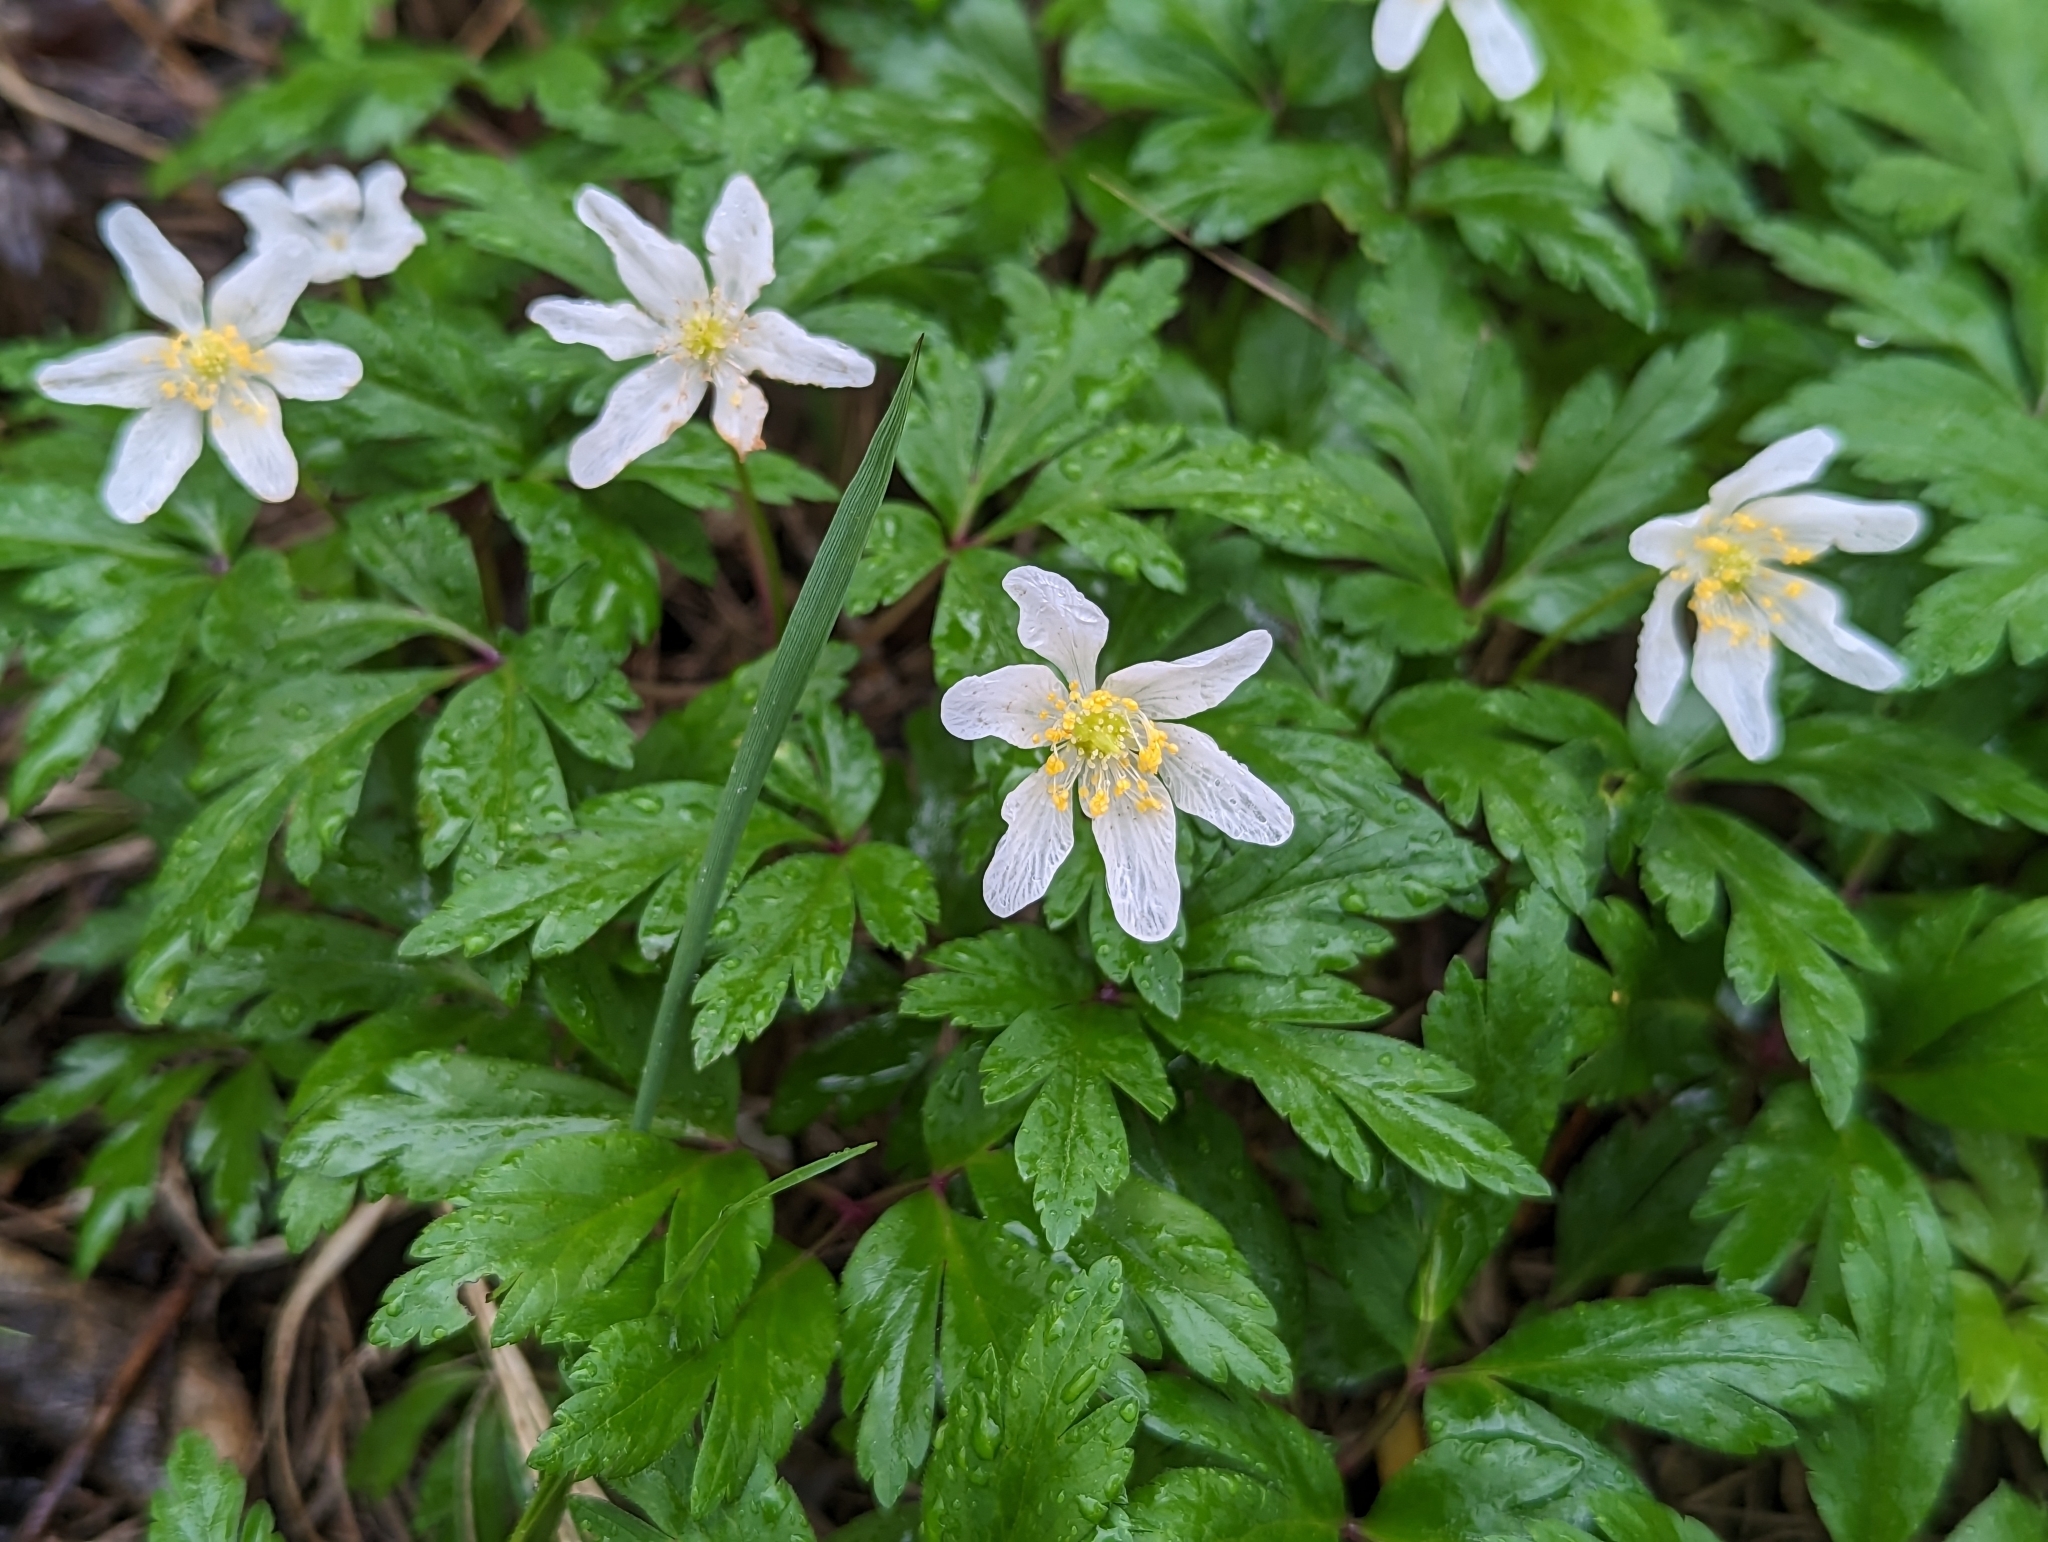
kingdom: Plantae
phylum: Tracheophyta
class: Magnoliopsida
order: Ranunculales
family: Ranunculaceae
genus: Anemone
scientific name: Anemone nemorosa
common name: Wood anemone
